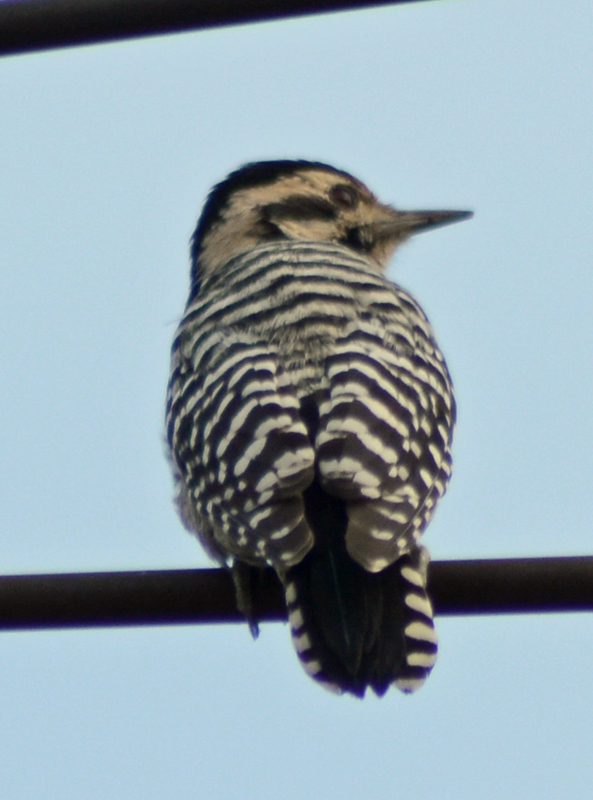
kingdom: Animalia
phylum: Chordata
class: Aves
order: Piciformes
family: Picidae
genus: Dryobates
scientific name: Dryobates scalaris
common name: Ladder-backed woodpecker
